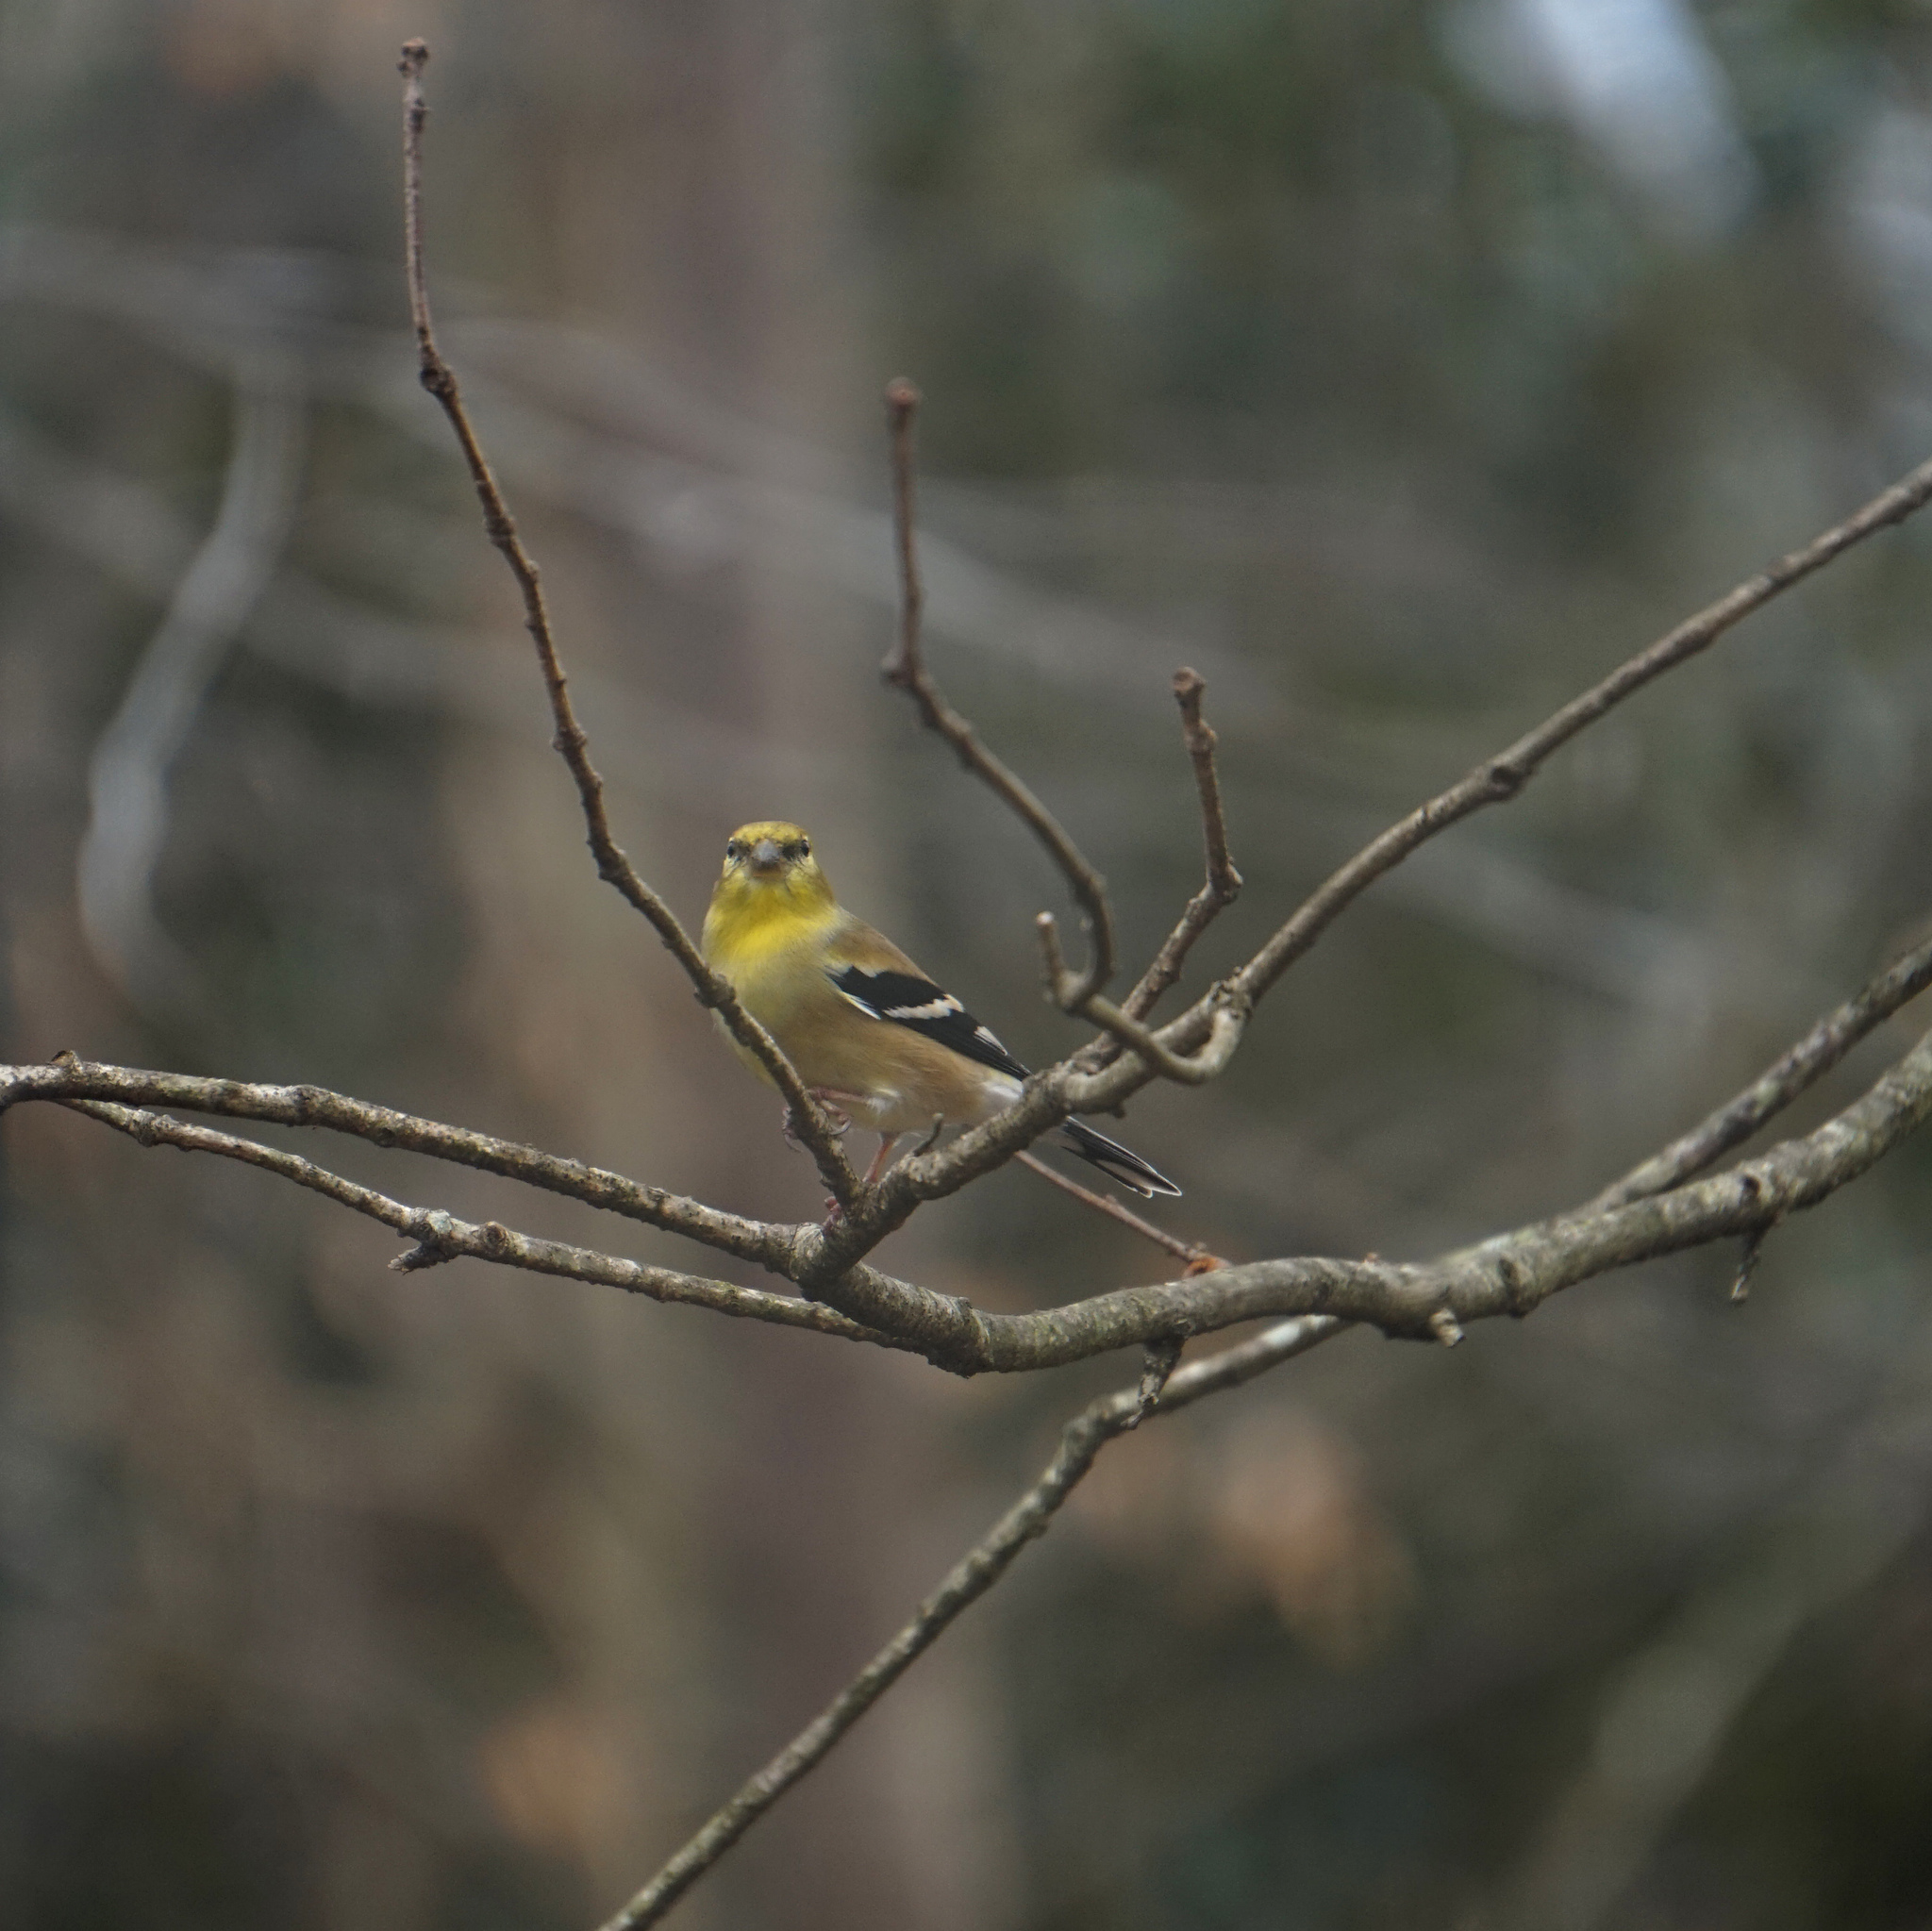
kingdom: Animalia
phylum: Chordata
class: Aves
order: Passeriformes
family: Fringillidae
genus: Spinus
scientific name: Spinus tristis
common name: American goldfinch
